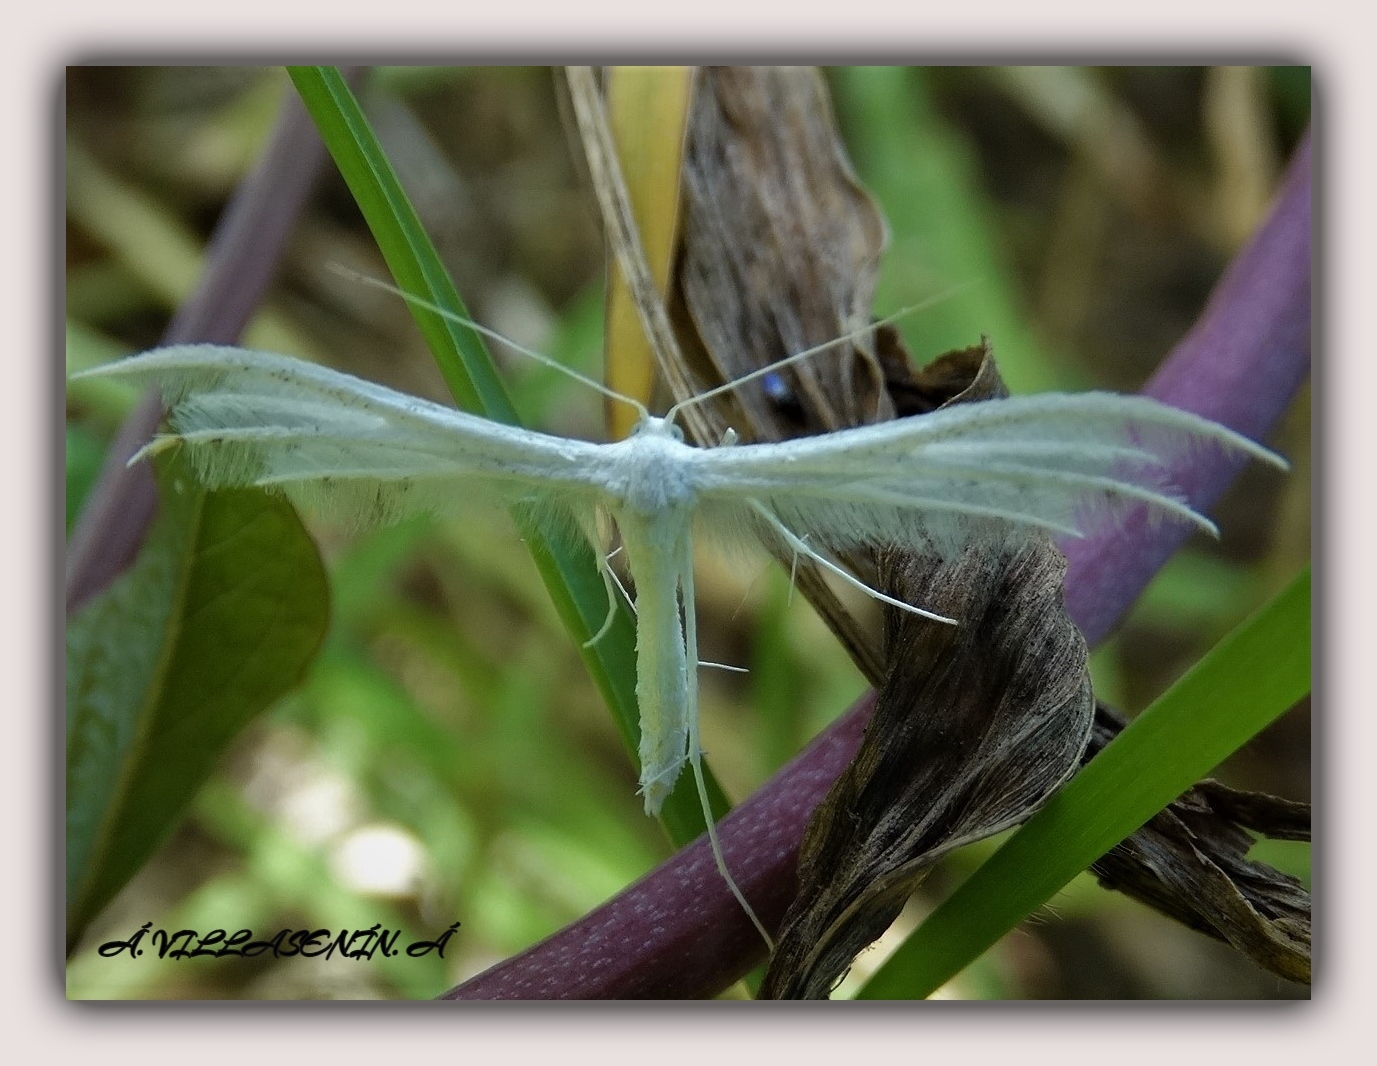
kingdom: Animalia
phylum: Arthropoda
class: Insecta
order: Lepidoptera
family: Pterophoridae
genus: Pterophorus
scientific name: Pterophorus pentadactyla
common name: White plume moth
